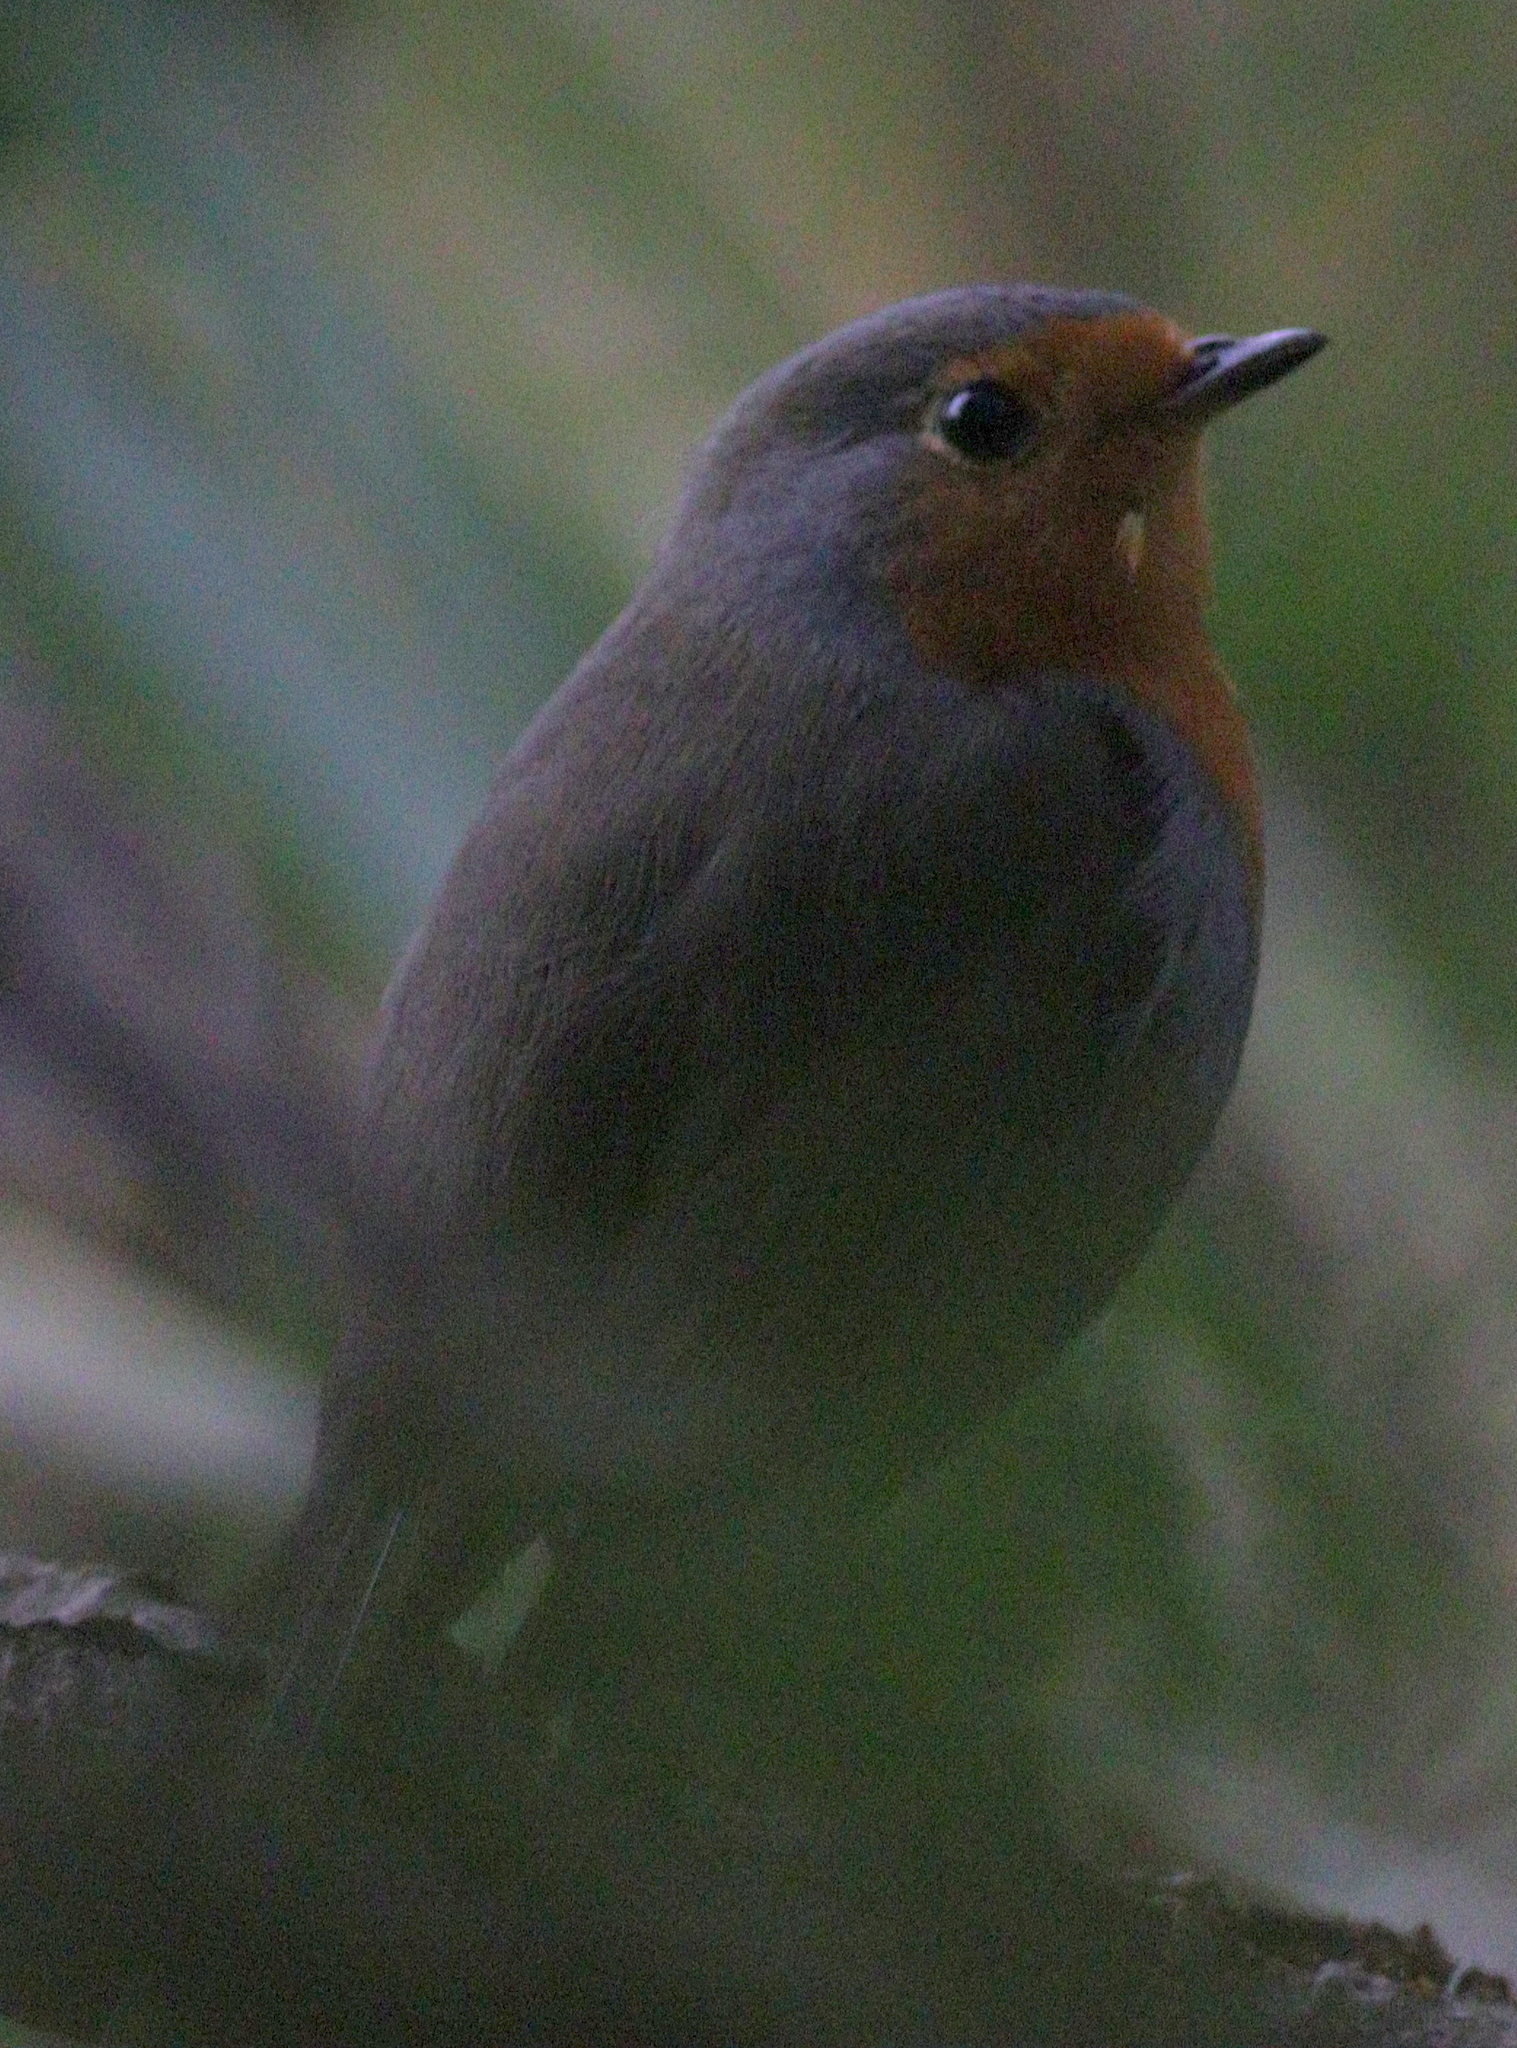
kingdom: Animalia
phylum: Chordata
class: Aves
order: Passeriformes
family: Muscicapidae
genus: Erithacus
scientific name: Erithacus rubecula
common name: European robin
